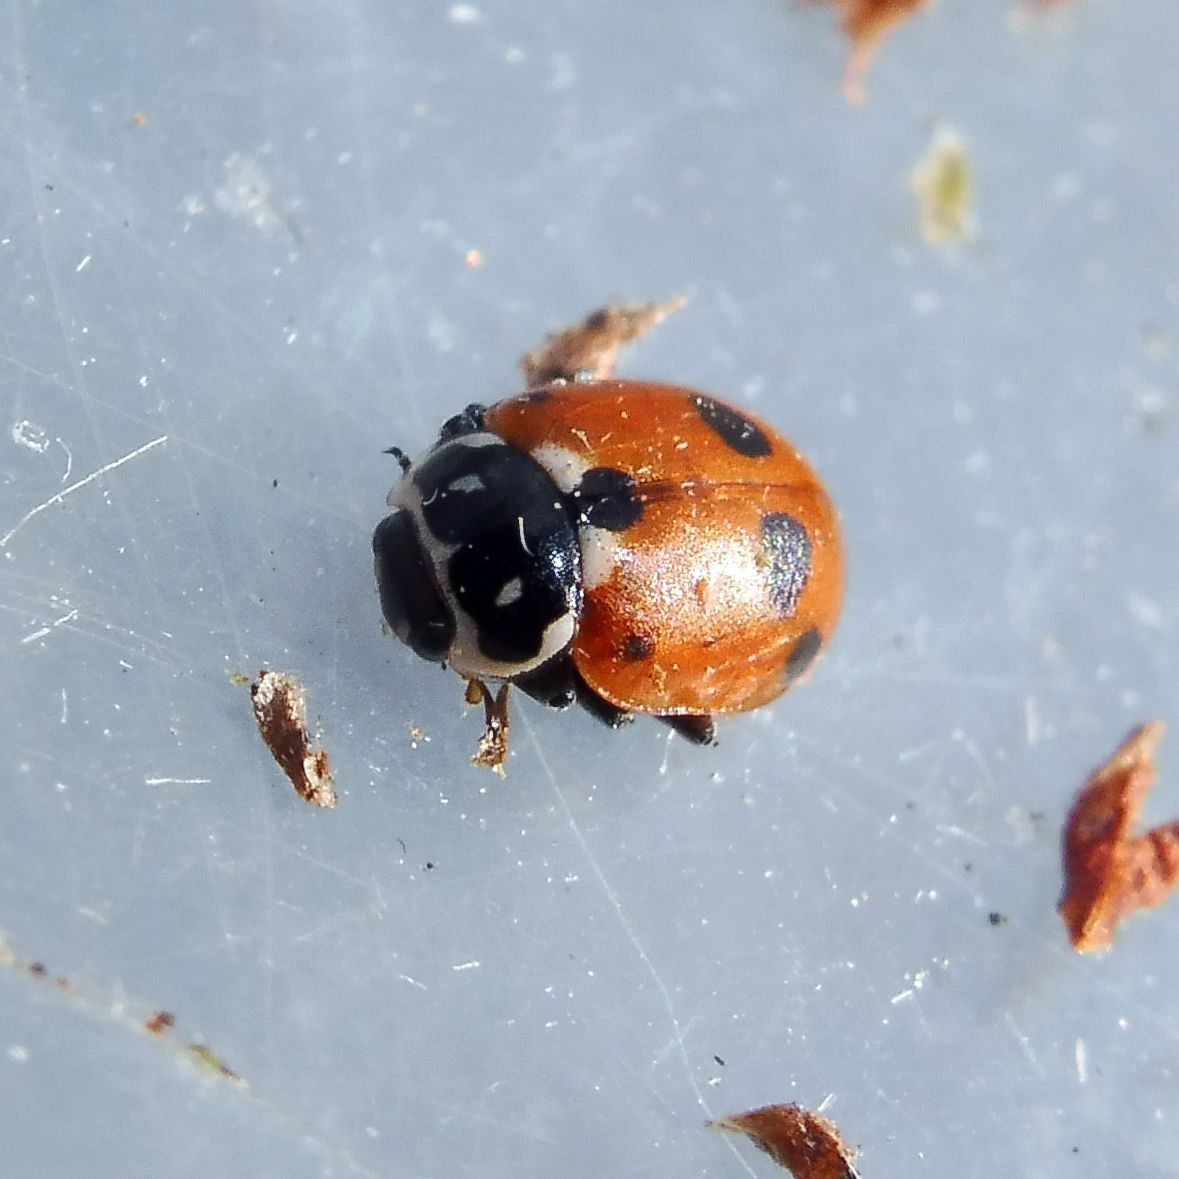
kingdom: Animalia
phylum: Arthropoda
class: Insecta
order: Coleoptera
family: Coccinellidae
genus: Hippodamia
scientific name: Hippodamia variegata
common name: Ladybird beetle
